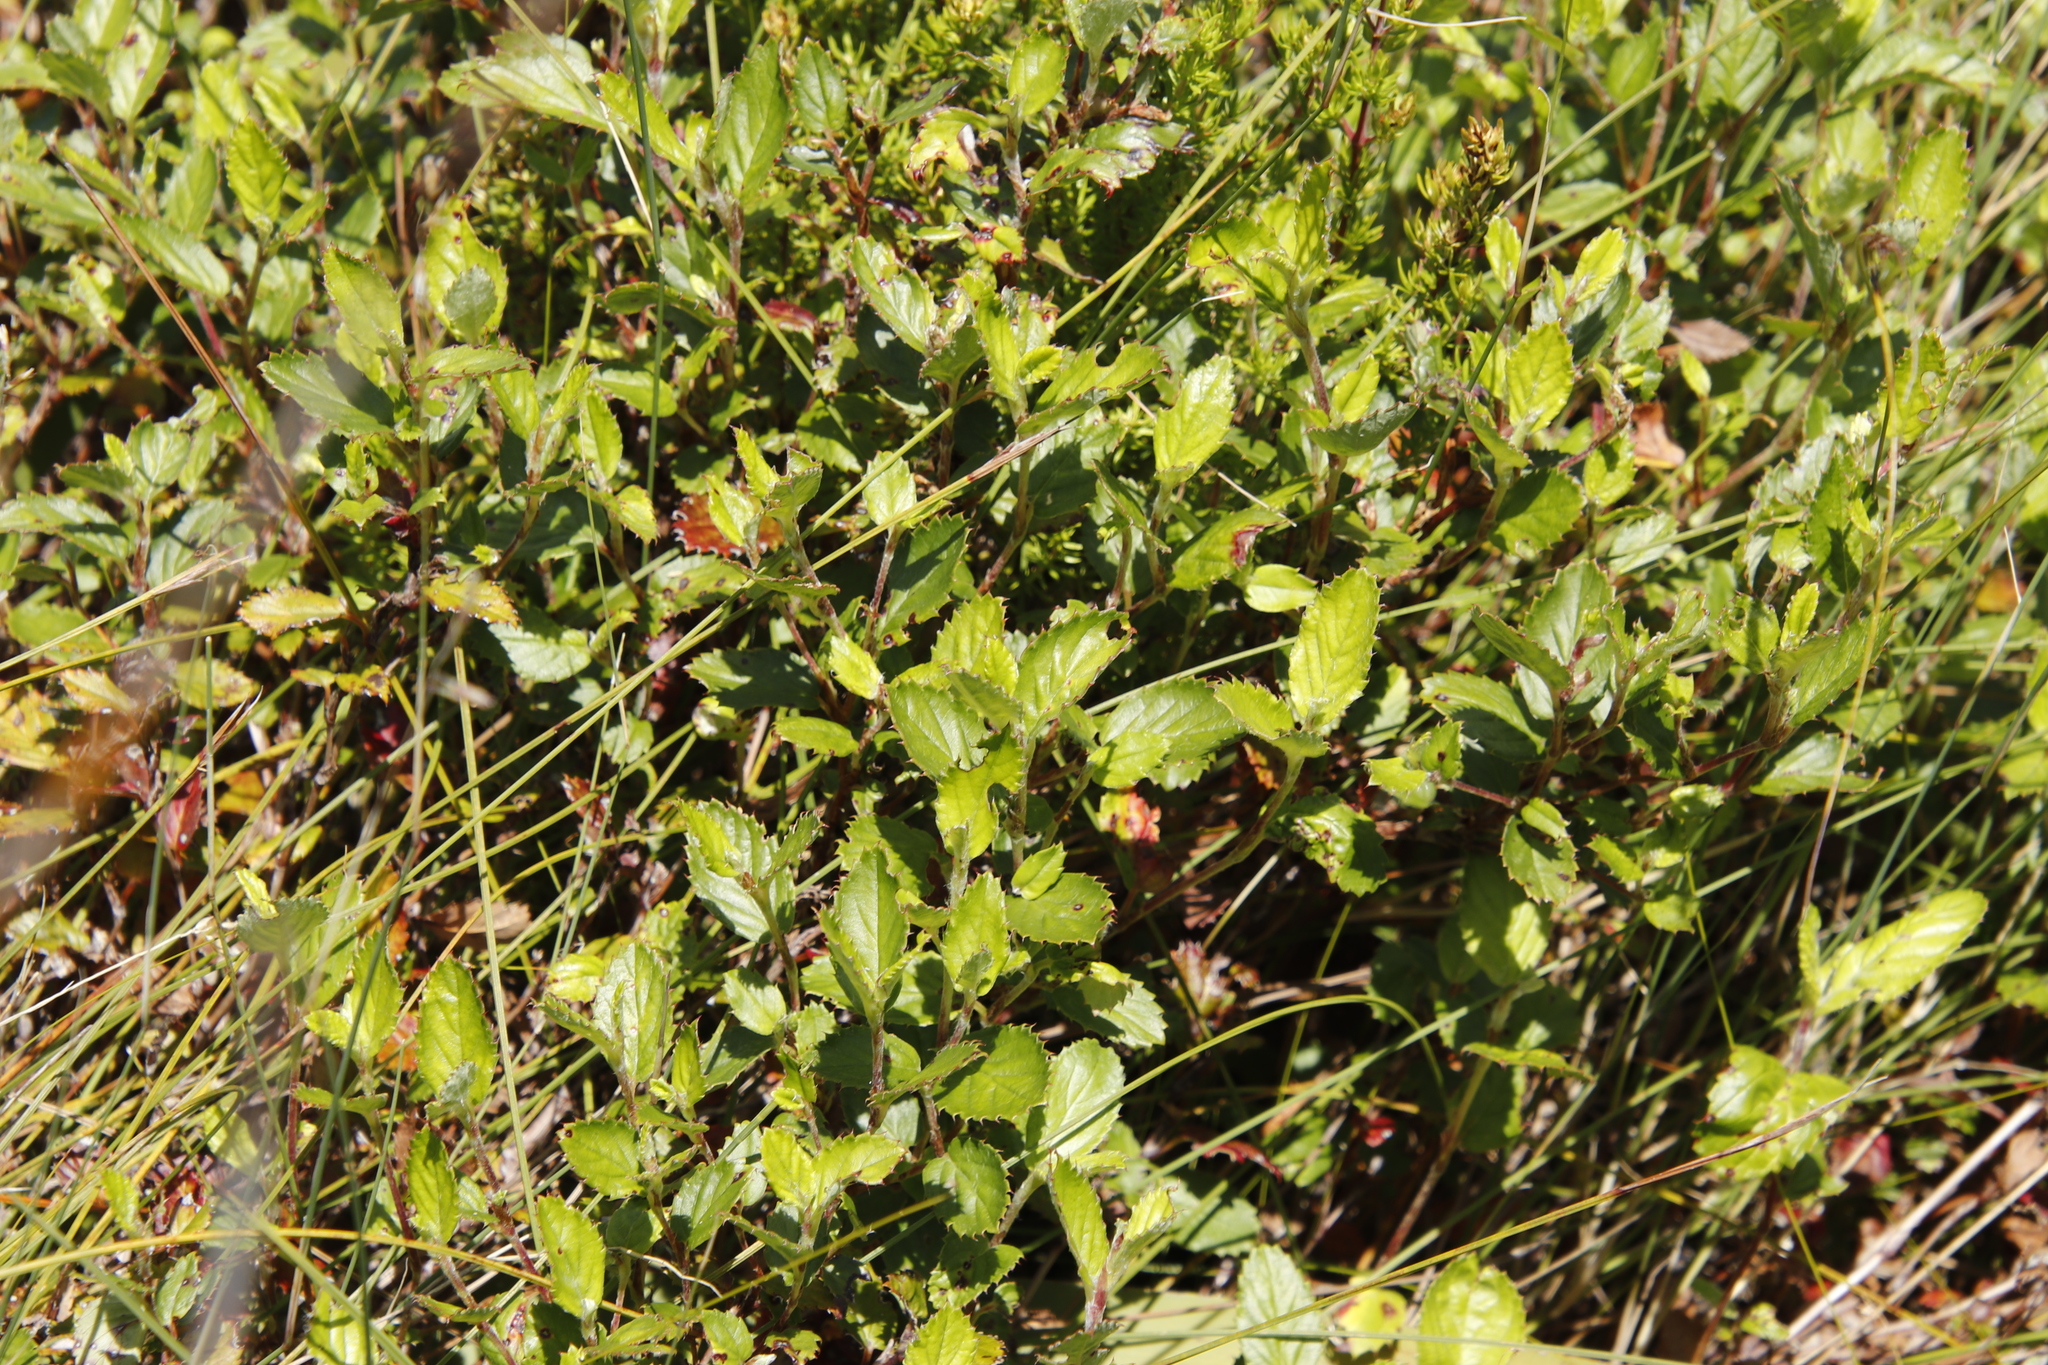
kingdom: Plantae
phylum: Tracheophyta
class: Magnoliopsida
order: Rosales
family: Rosaceae
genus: Cliffortia
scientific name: Cliffortia odorata
